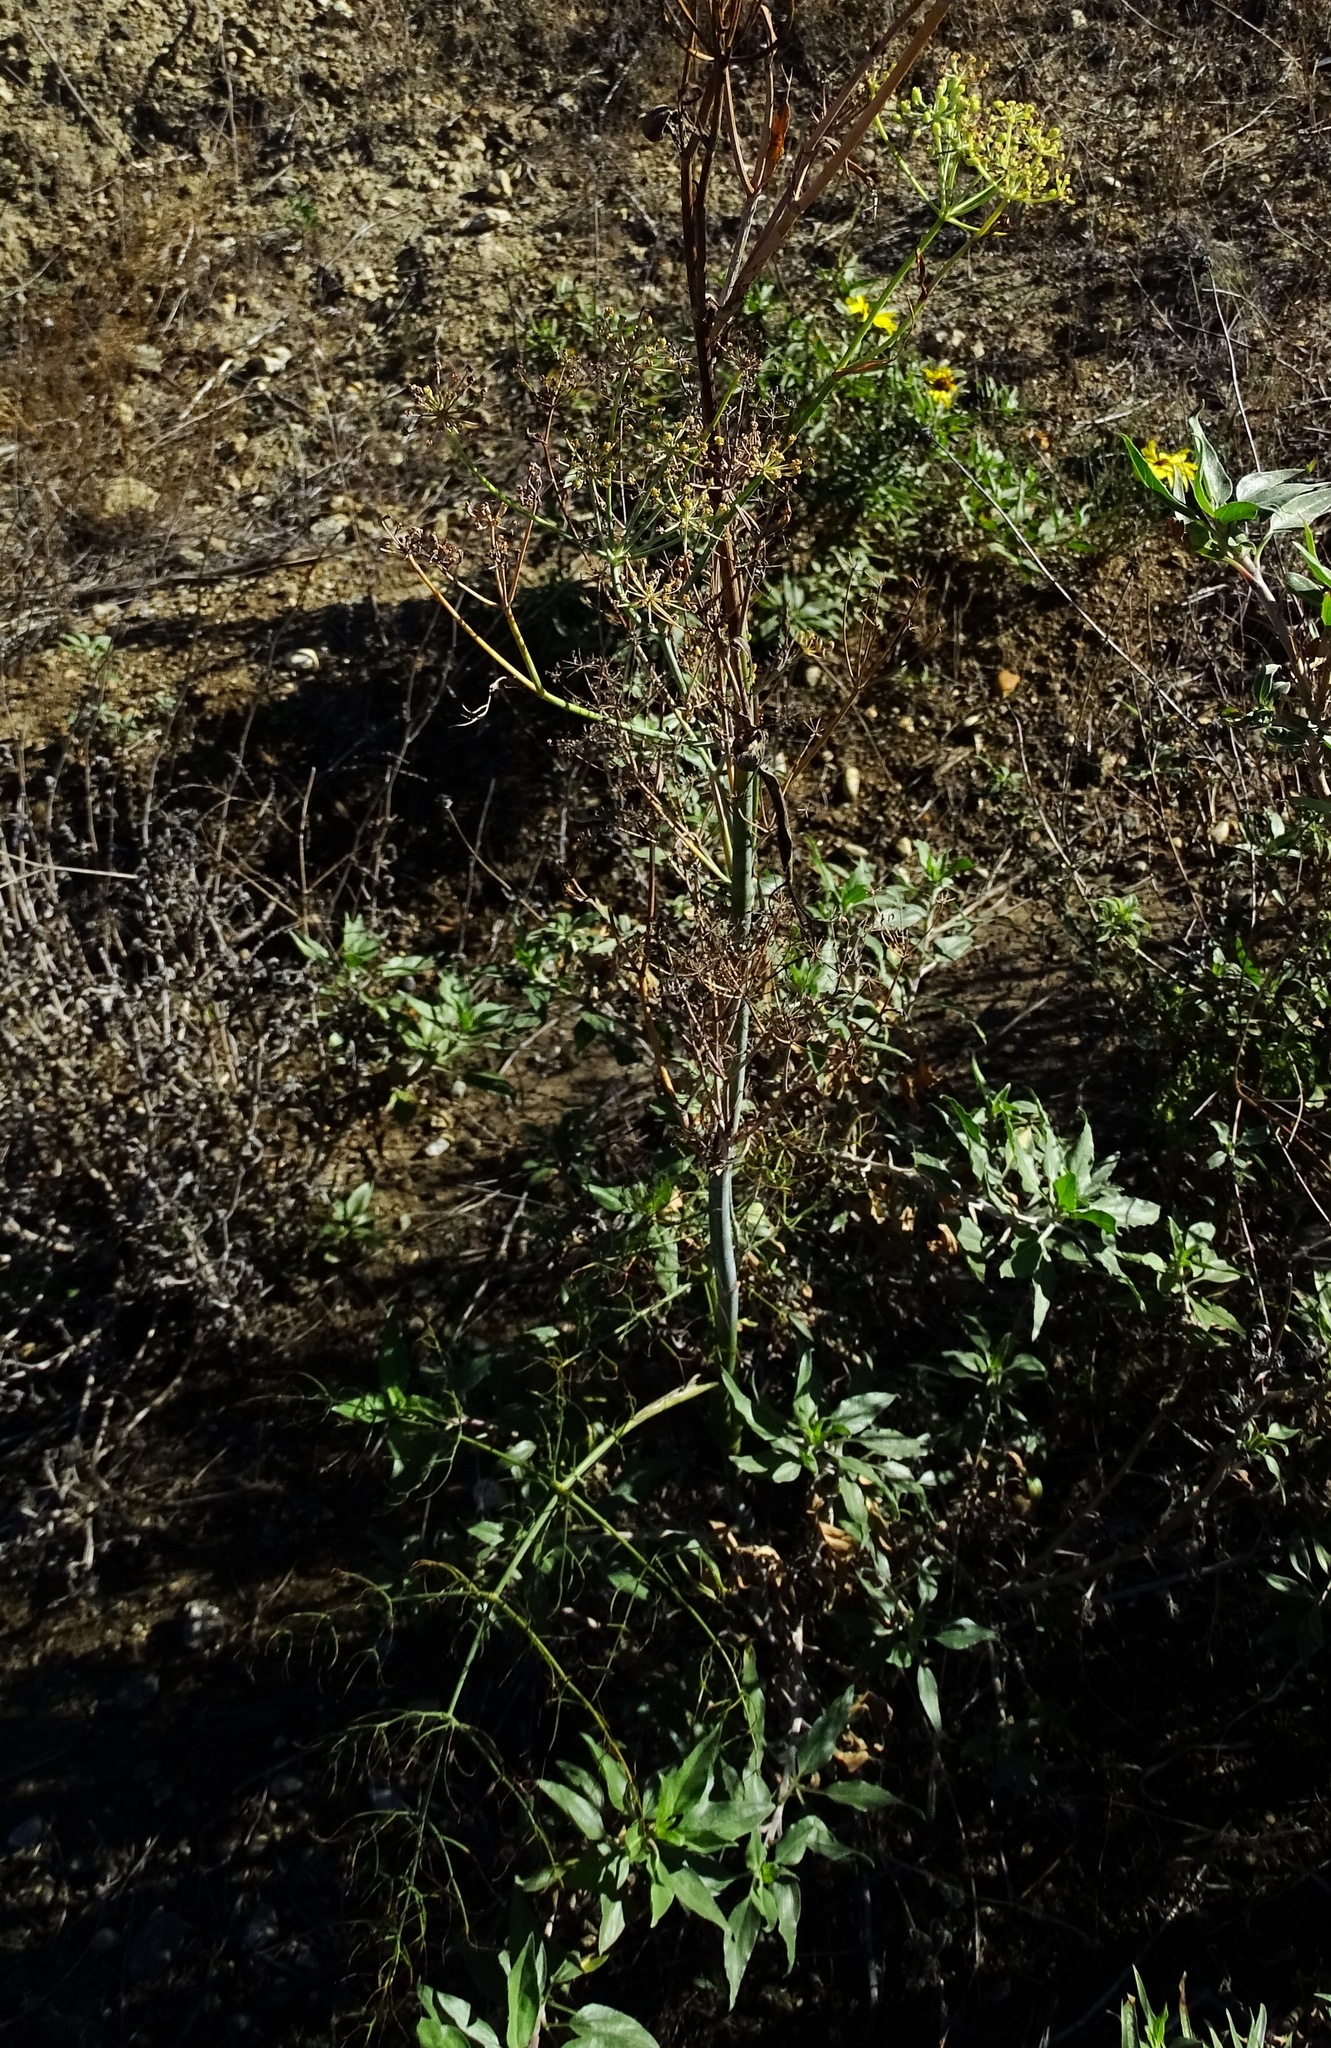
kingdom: Plantae
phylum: Tracheophyta
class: Magnoliopsida
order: Apiales
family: Apiaceae
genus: Foeniculum
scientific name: Foeniculum vulgare
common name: Fennel
